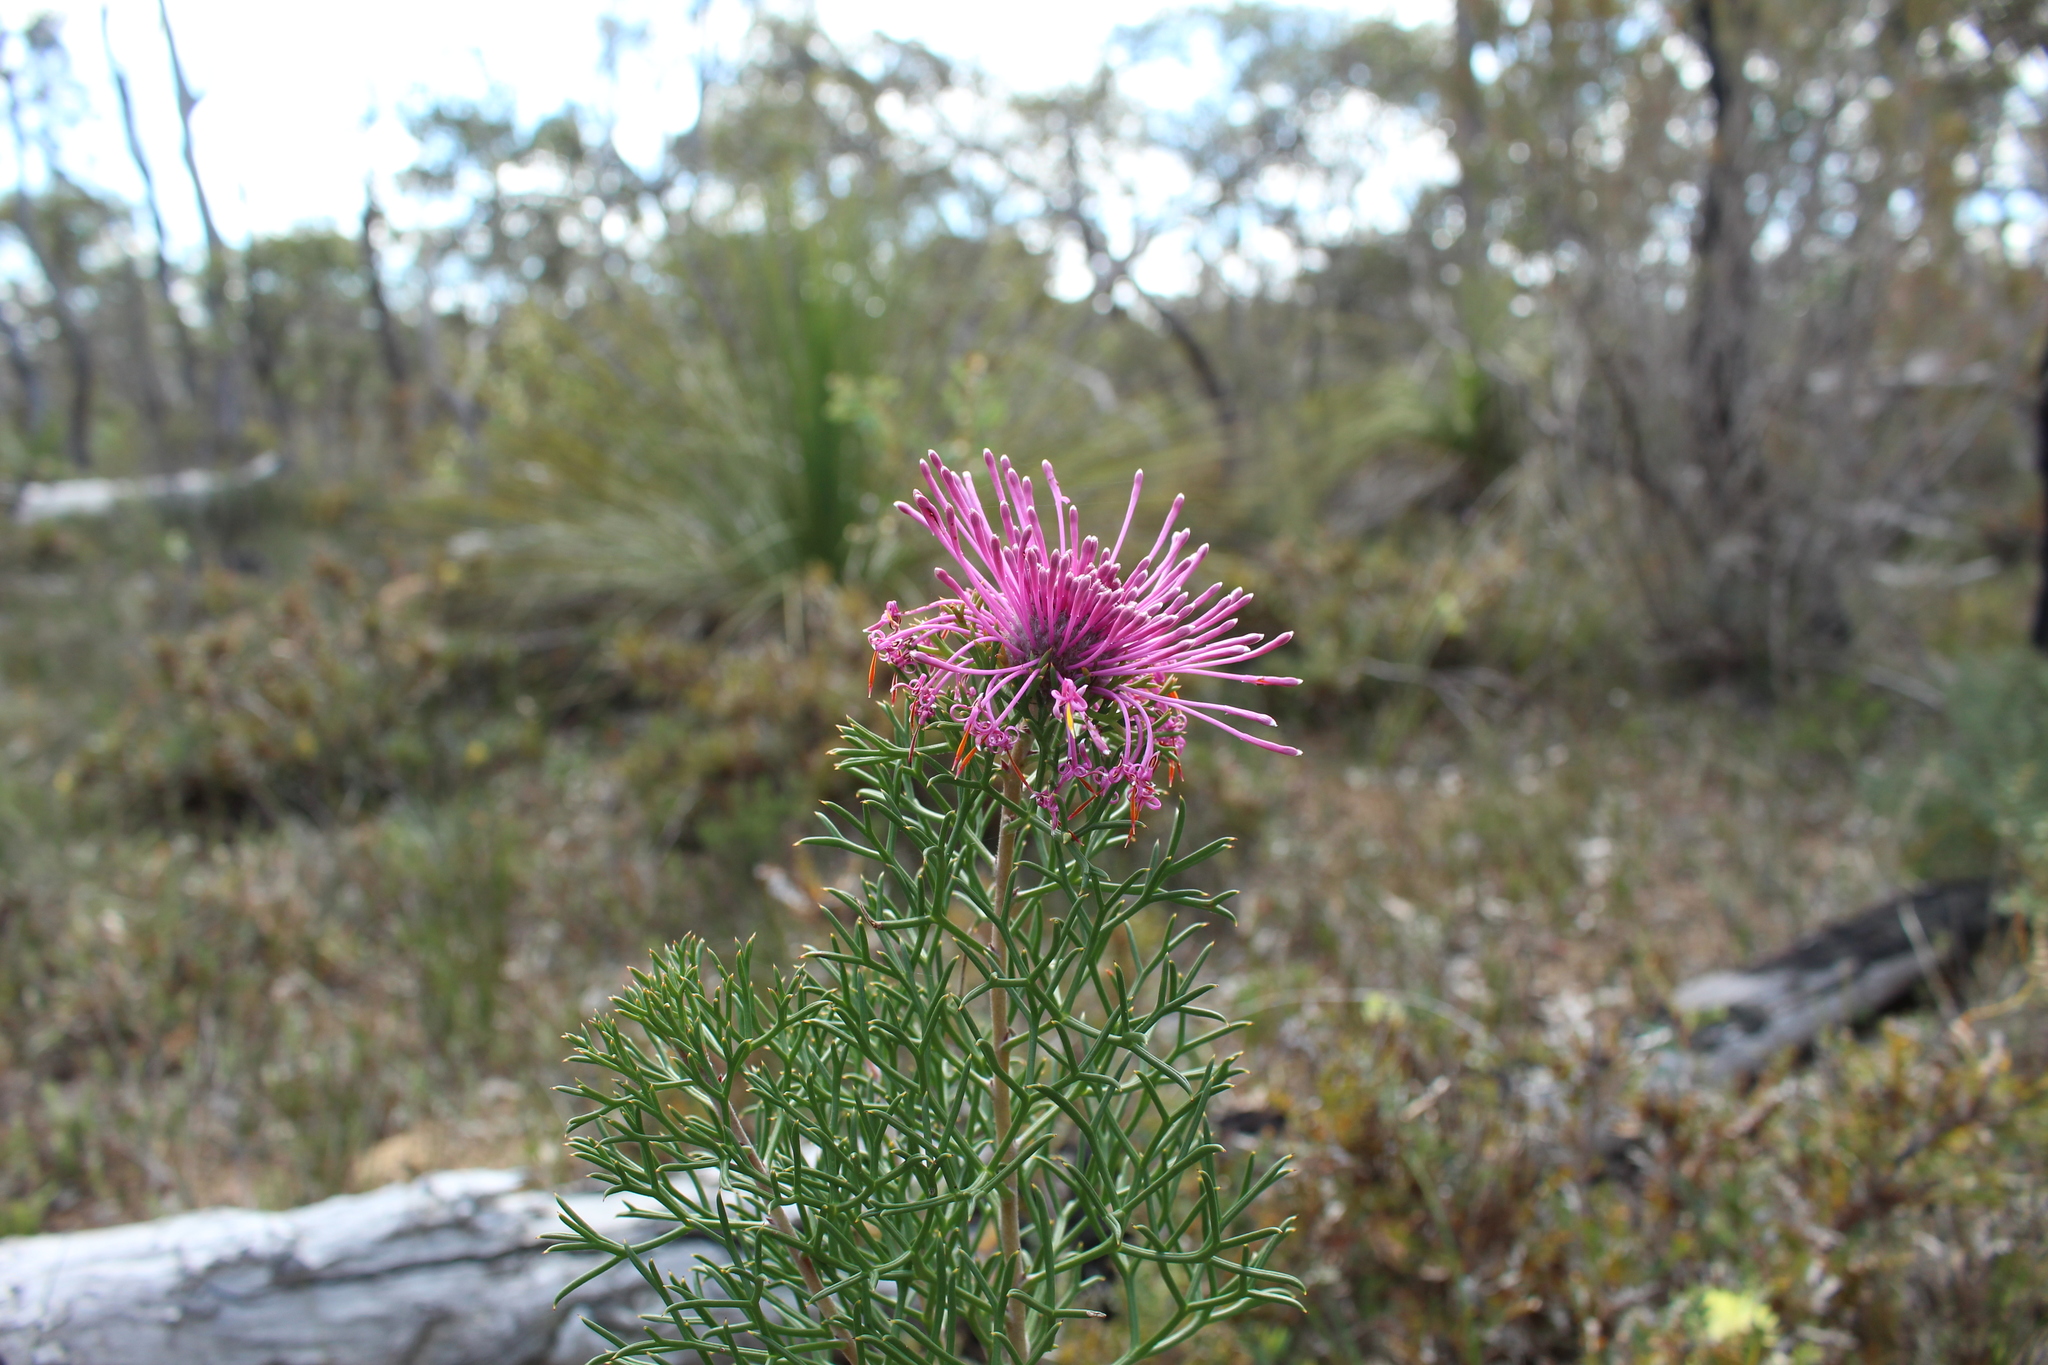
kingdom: Plantae
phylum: Tracheophyta
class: Magnoliopsida
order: Proteales
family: Proteaceae
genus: Isopogon
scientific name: Isopogon formosus
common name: Rose-coneflower
